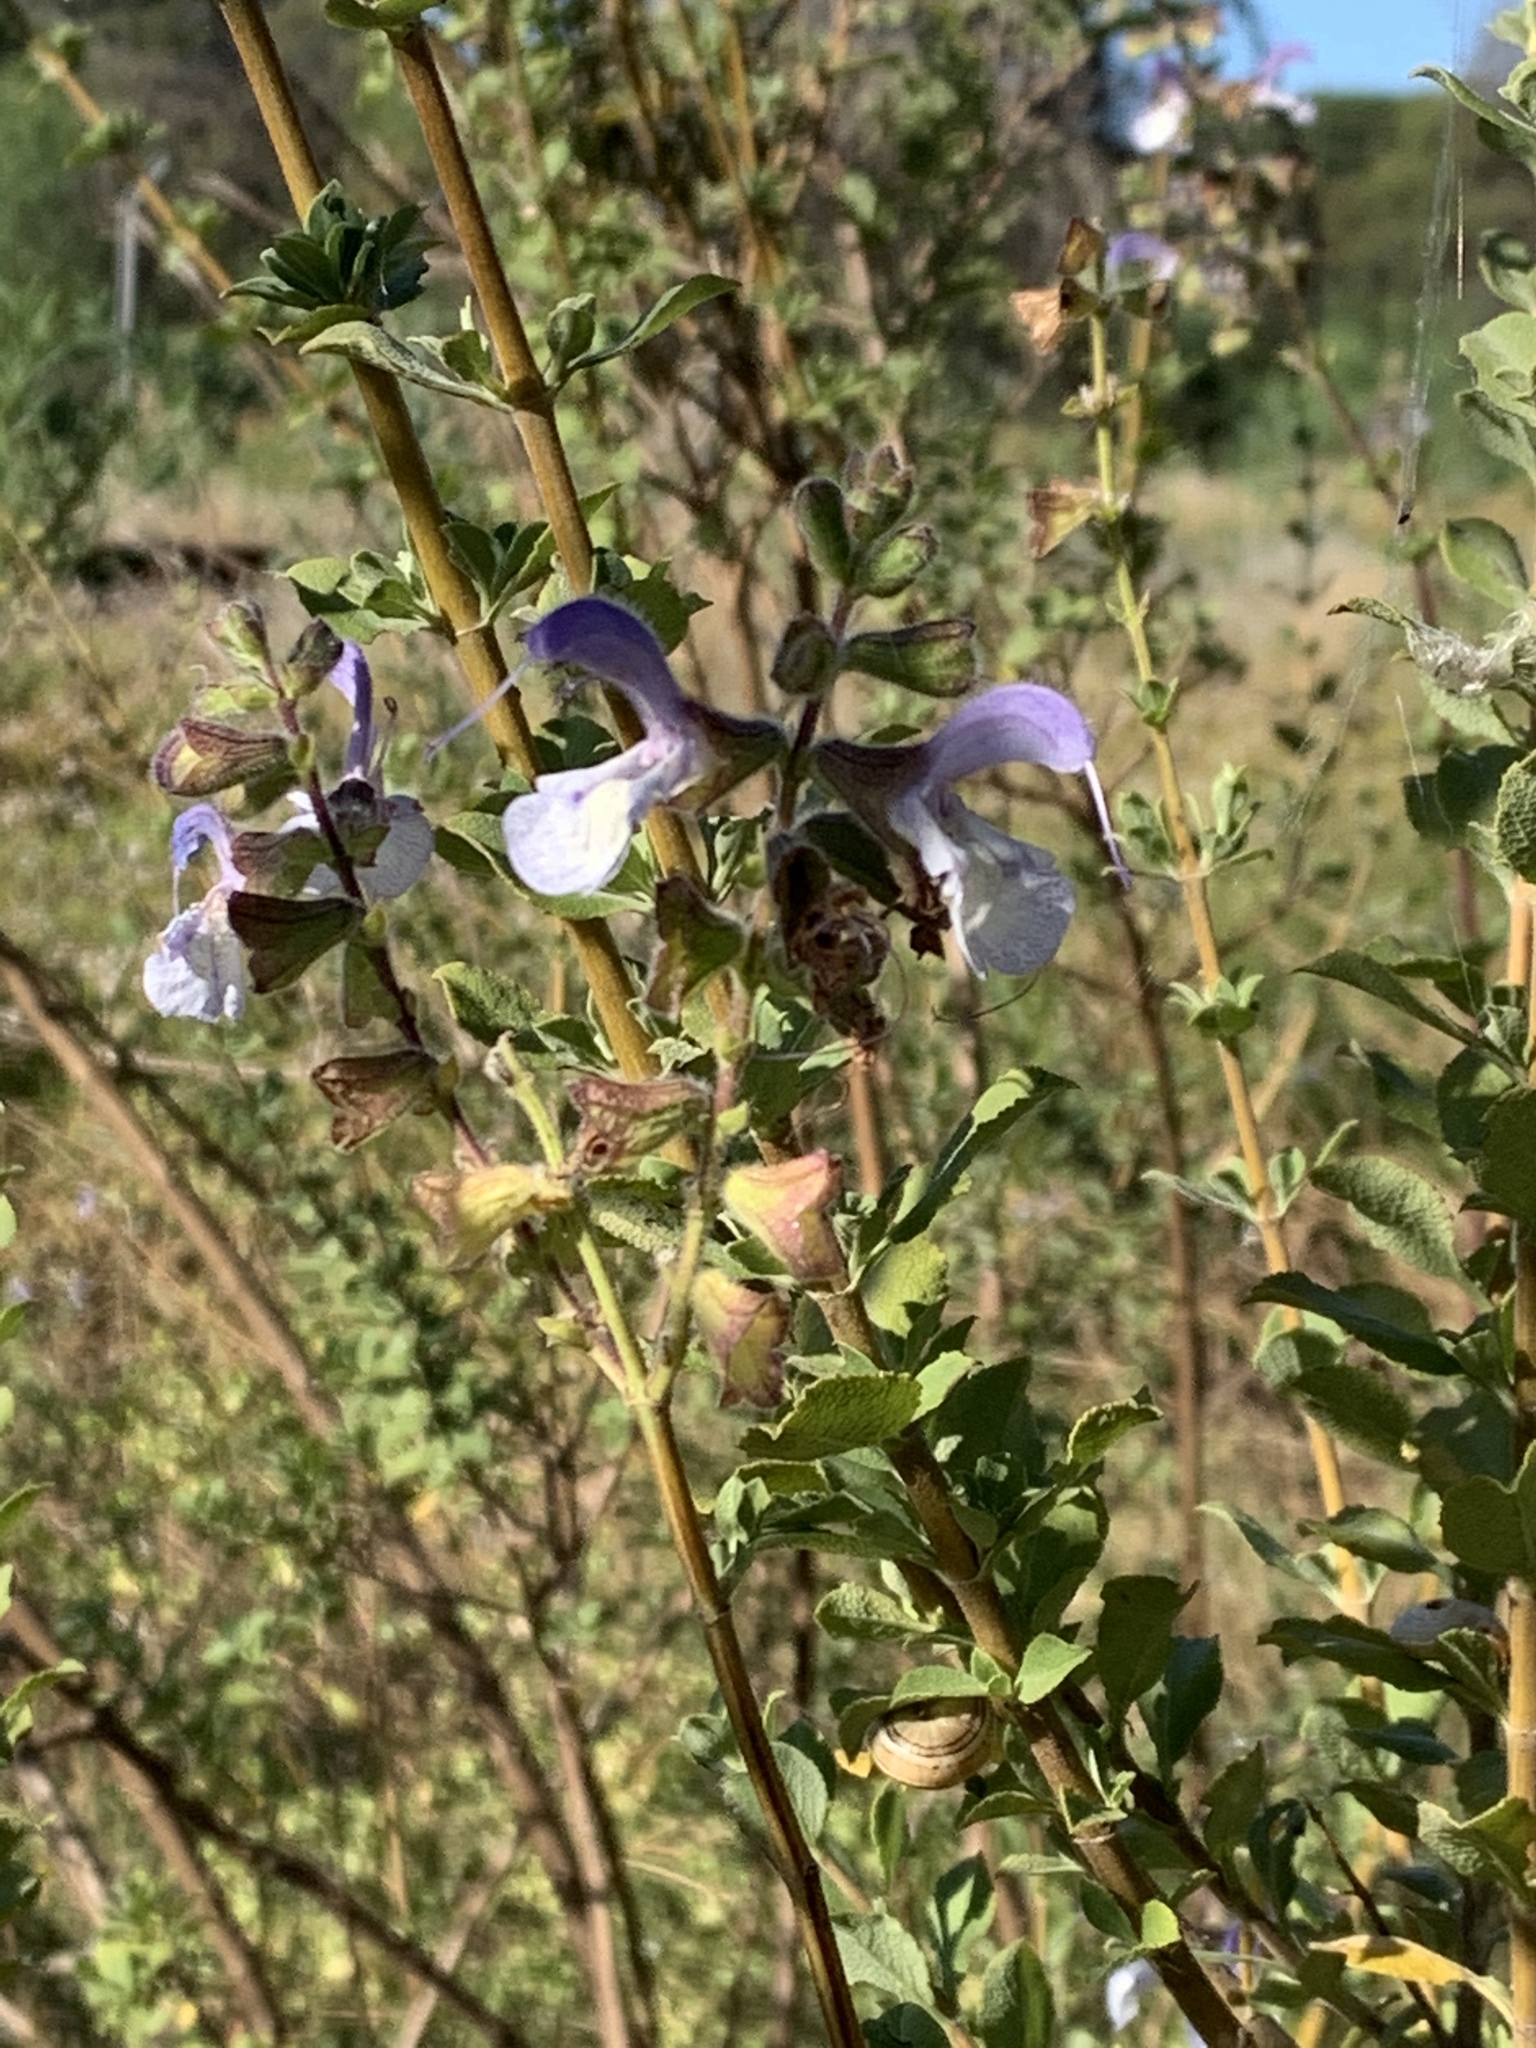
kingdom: Plantae
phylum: Tracheophyta
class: Magnoliopsida
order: Lamiales
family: Lamiaceae
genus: Salvia
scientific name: Salvia africana
